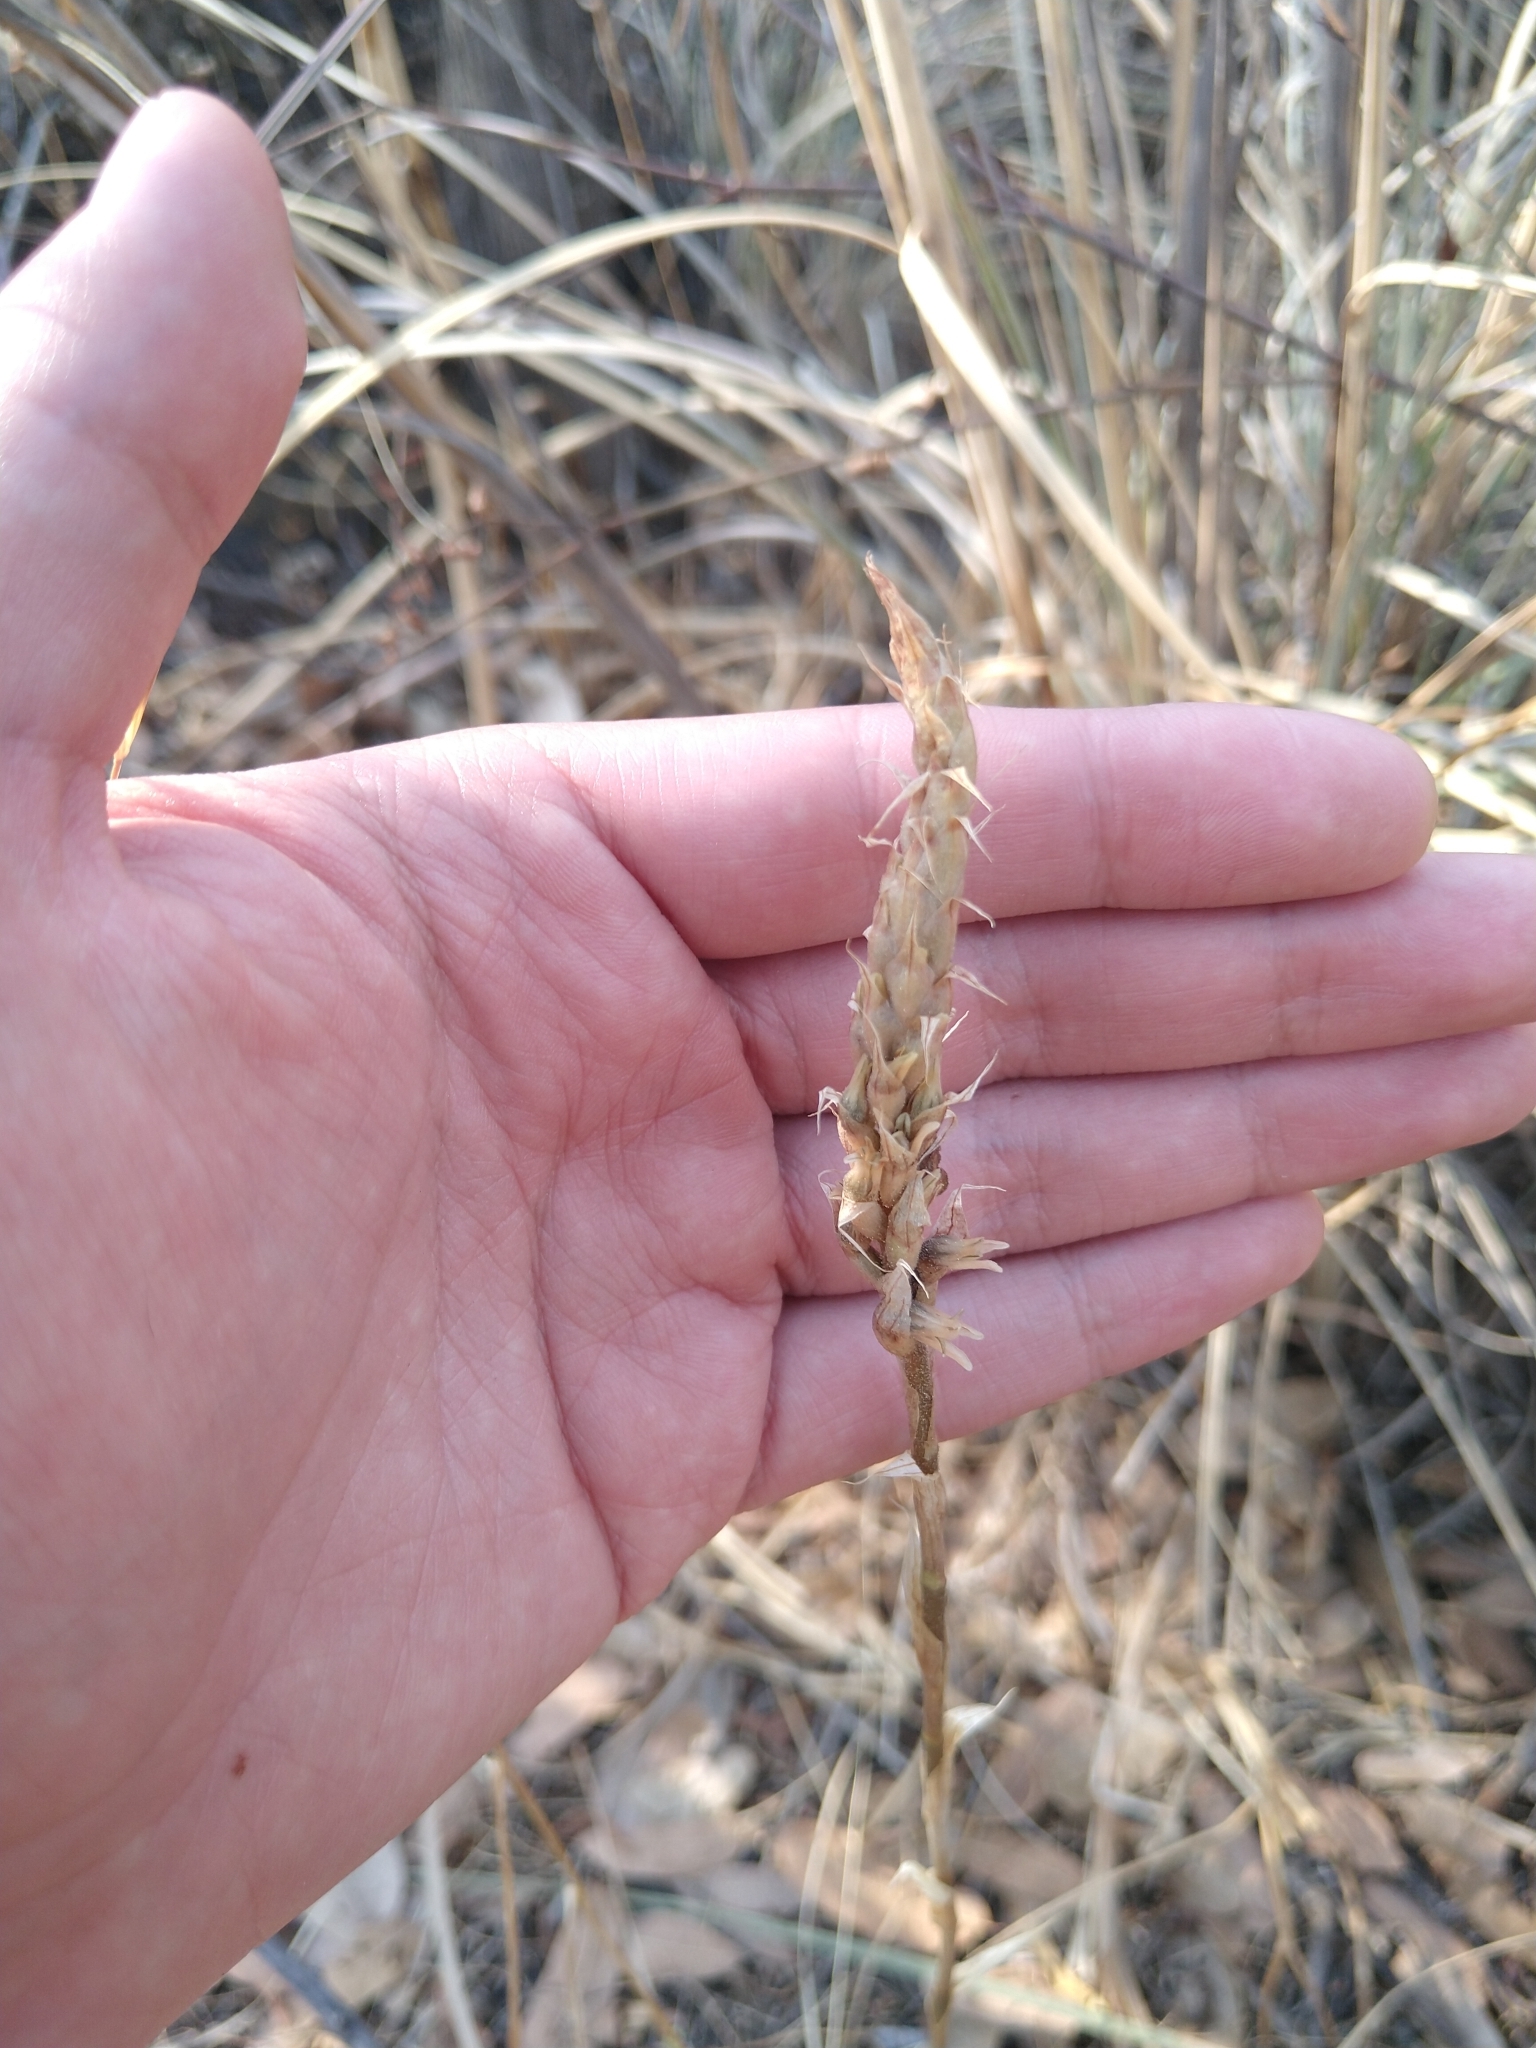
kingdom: Plantae
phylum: Tracheophyta
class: Liliopsida
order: Asparagales
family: Orchidaceae
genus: Aulosepalum
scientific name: Aulosepalum pyramidale
